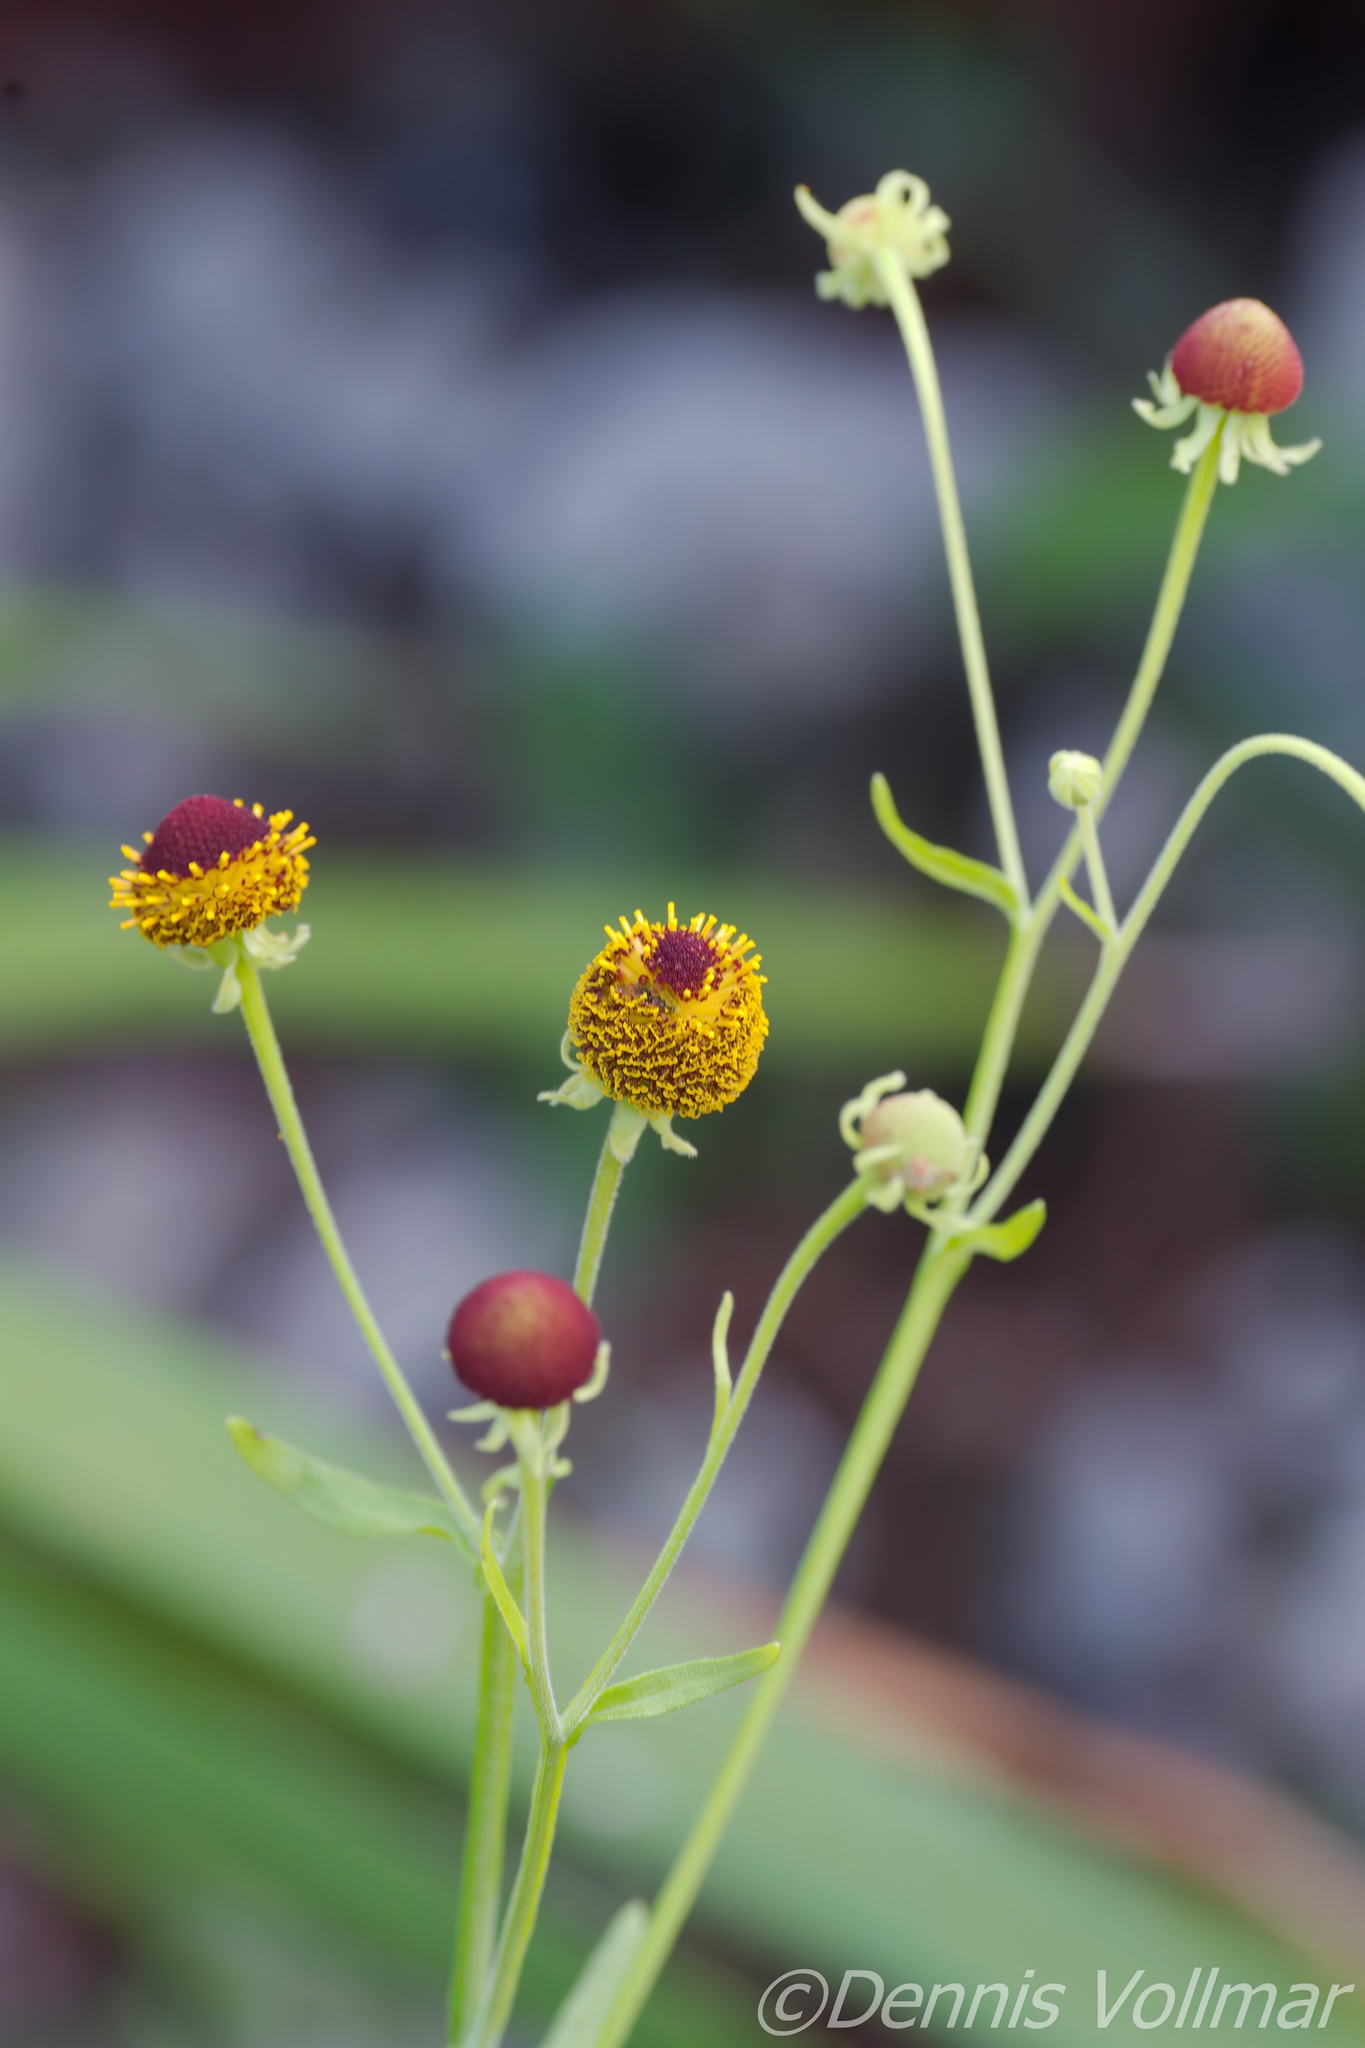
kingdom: Plantae
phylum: Tracheophyta
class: Magnoliopsida
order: Asterales
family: Asteraceae
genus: Helenium
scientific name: Helenium flexuosum
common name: Naked-flowered sneezeweed
